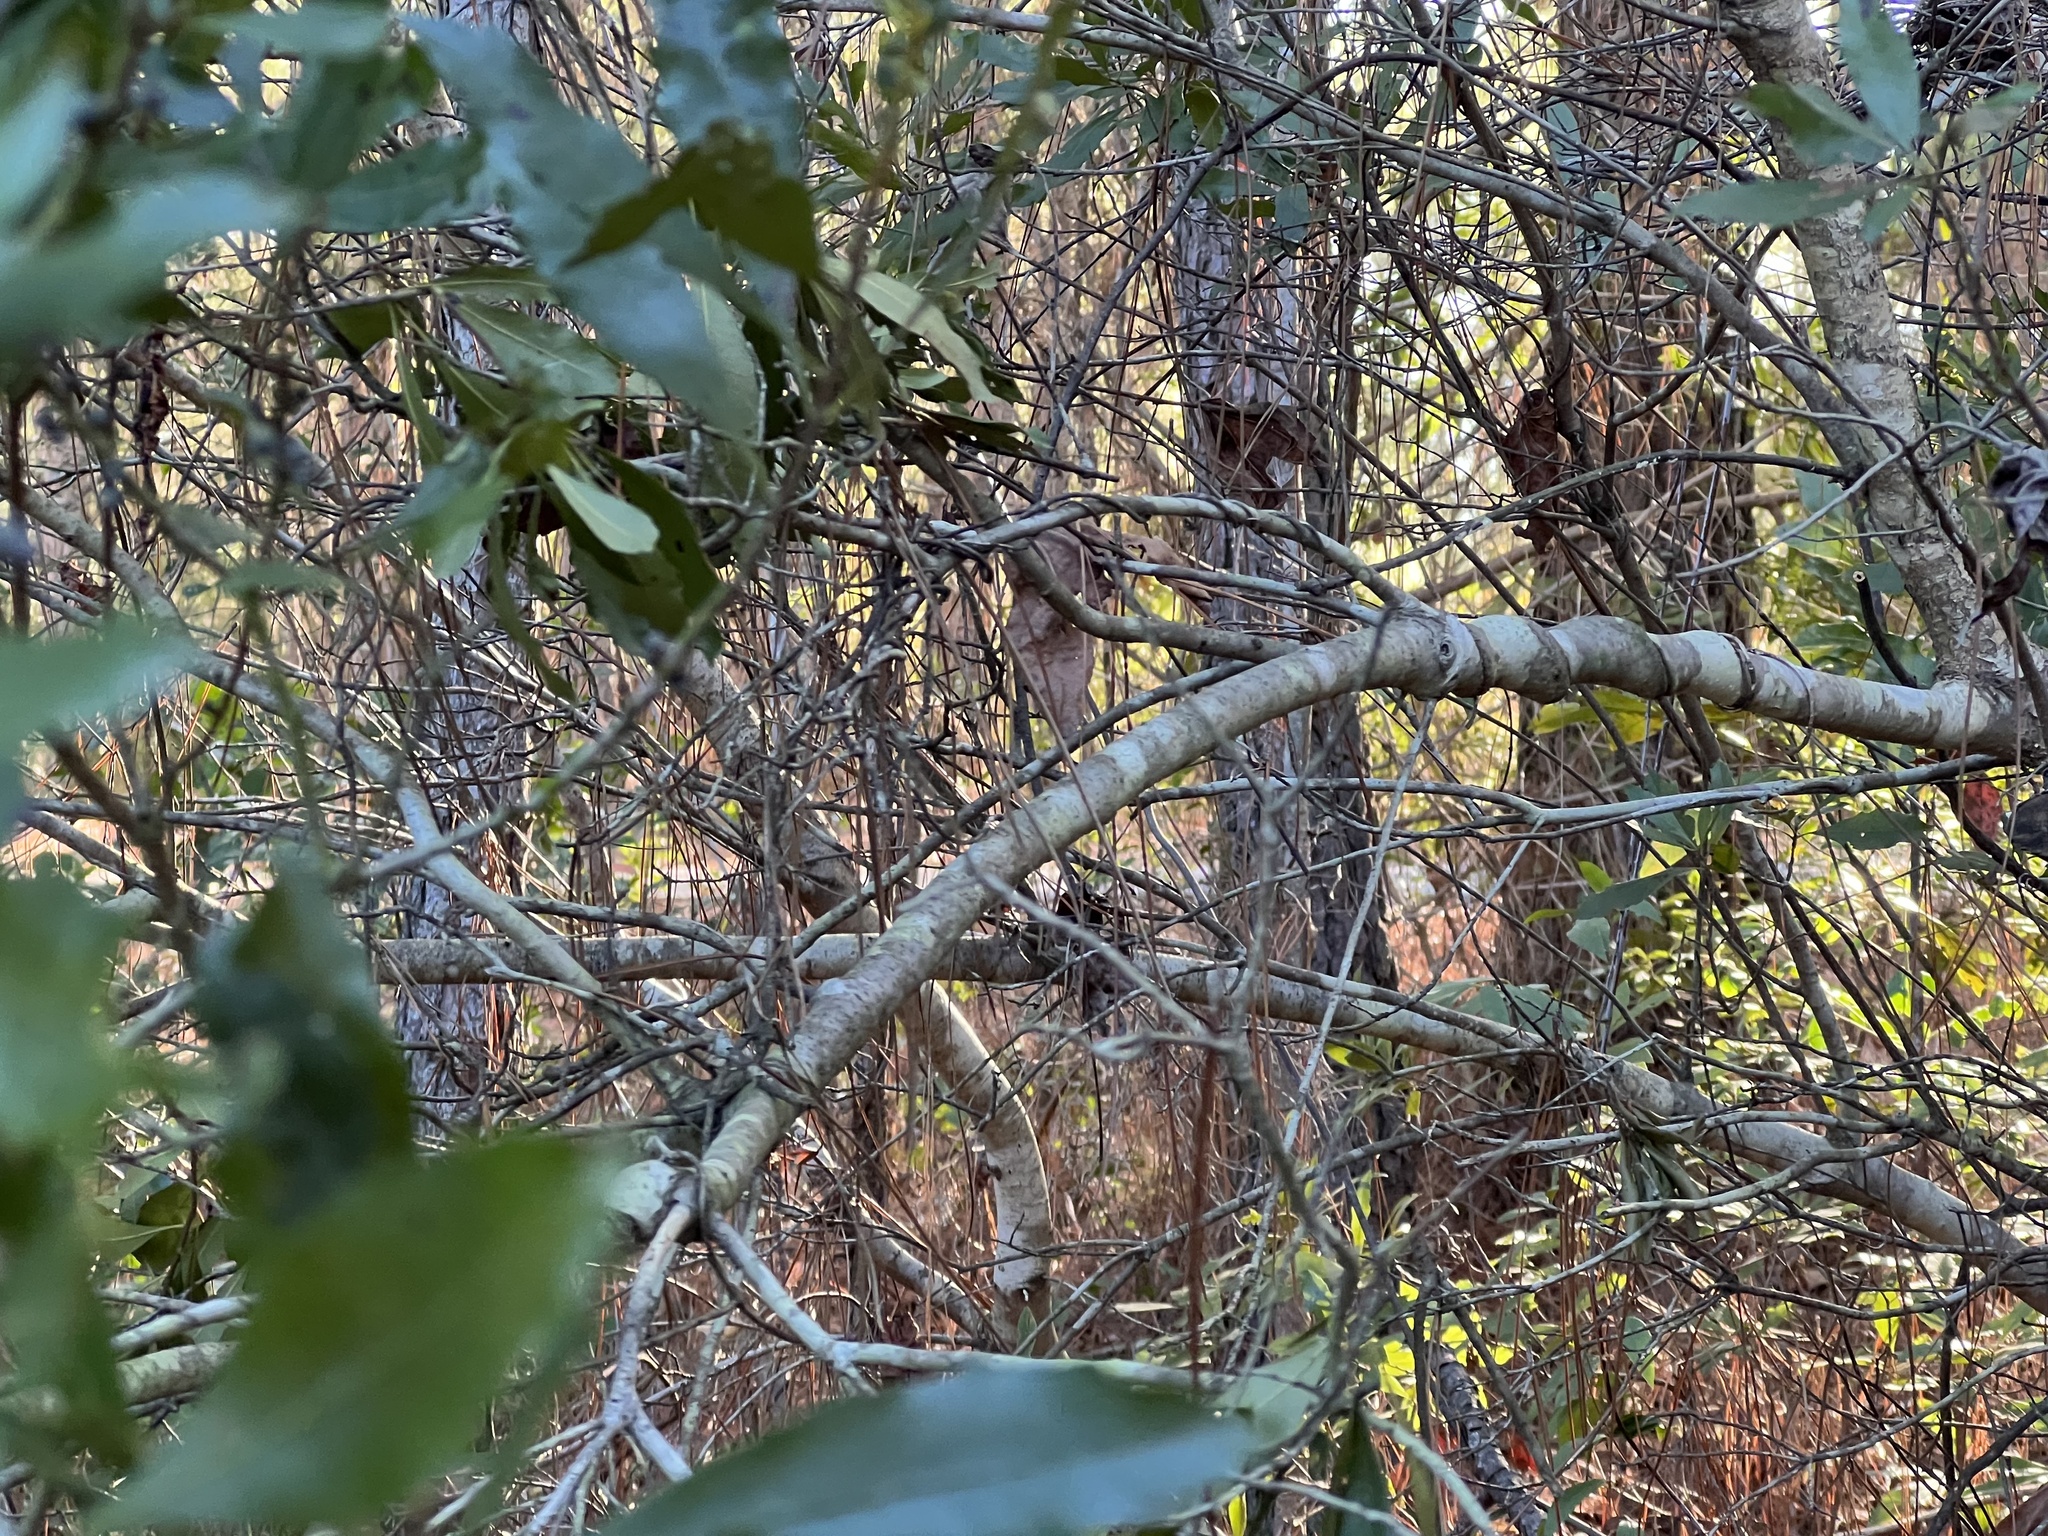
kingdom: Plantae
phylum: Tracheophyta
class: Magnoliopsida
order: Fagales
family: Myricaceae
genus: Morella
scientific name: Morella cerifera
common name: Wax myrtle
